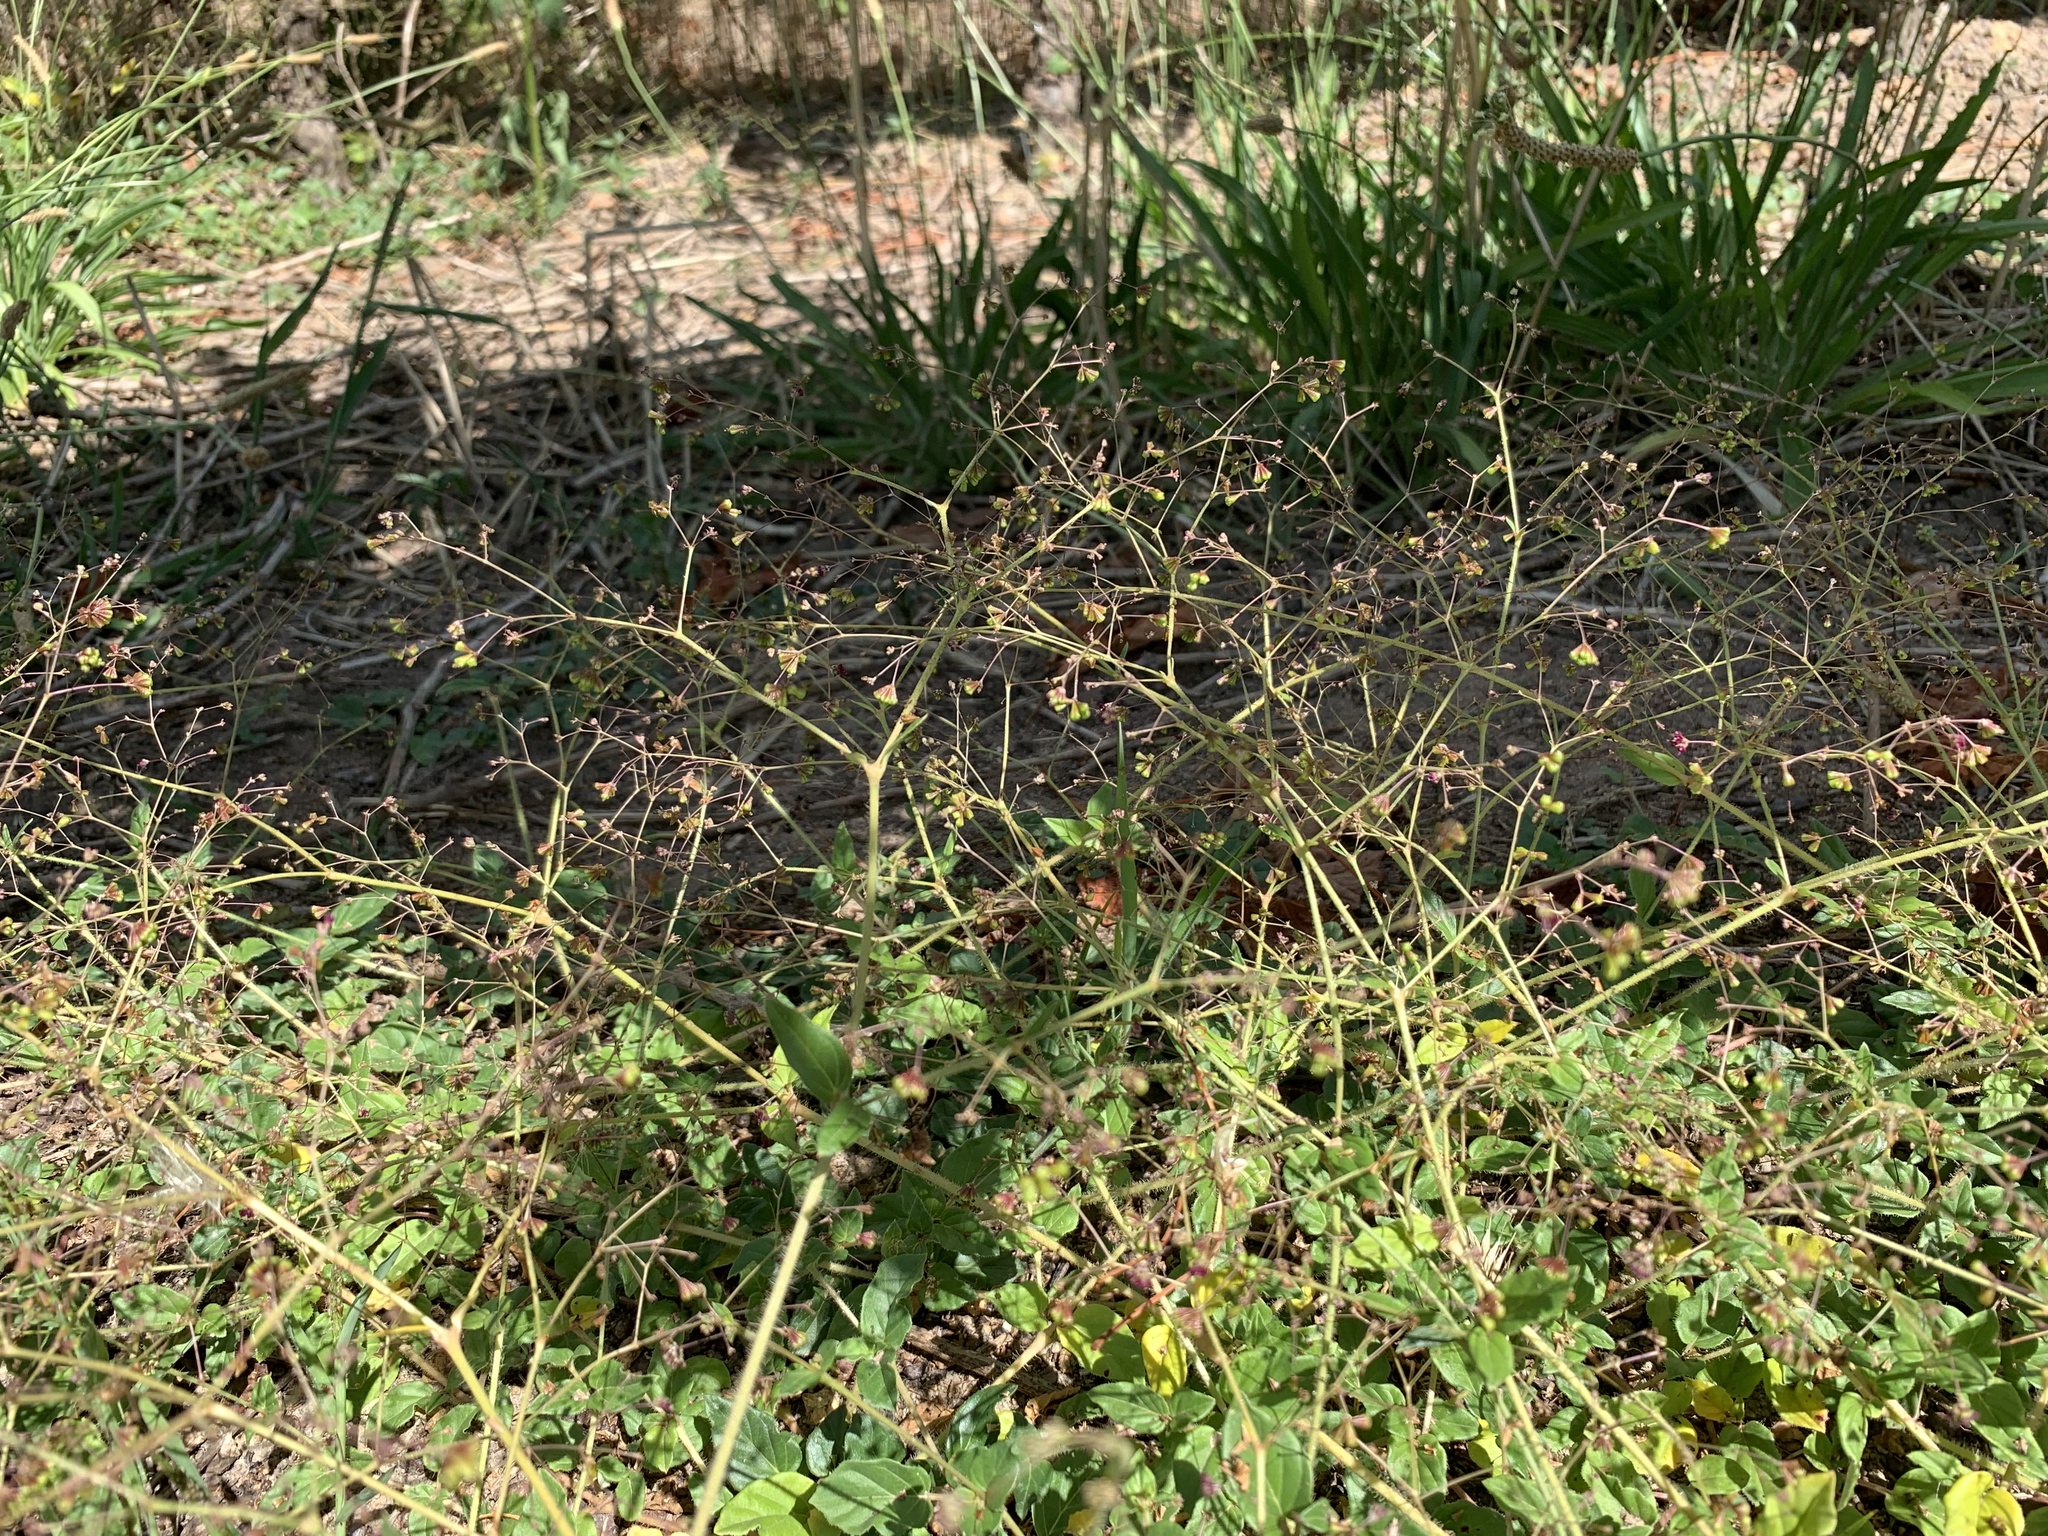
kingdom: Plantae
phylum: Tracheophyta
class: Magnoliopsida
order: Caryophyllales
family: Nyctaginaceae
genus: Boerhavia
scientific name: Boerhavia erecta
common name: Erect spiderling
